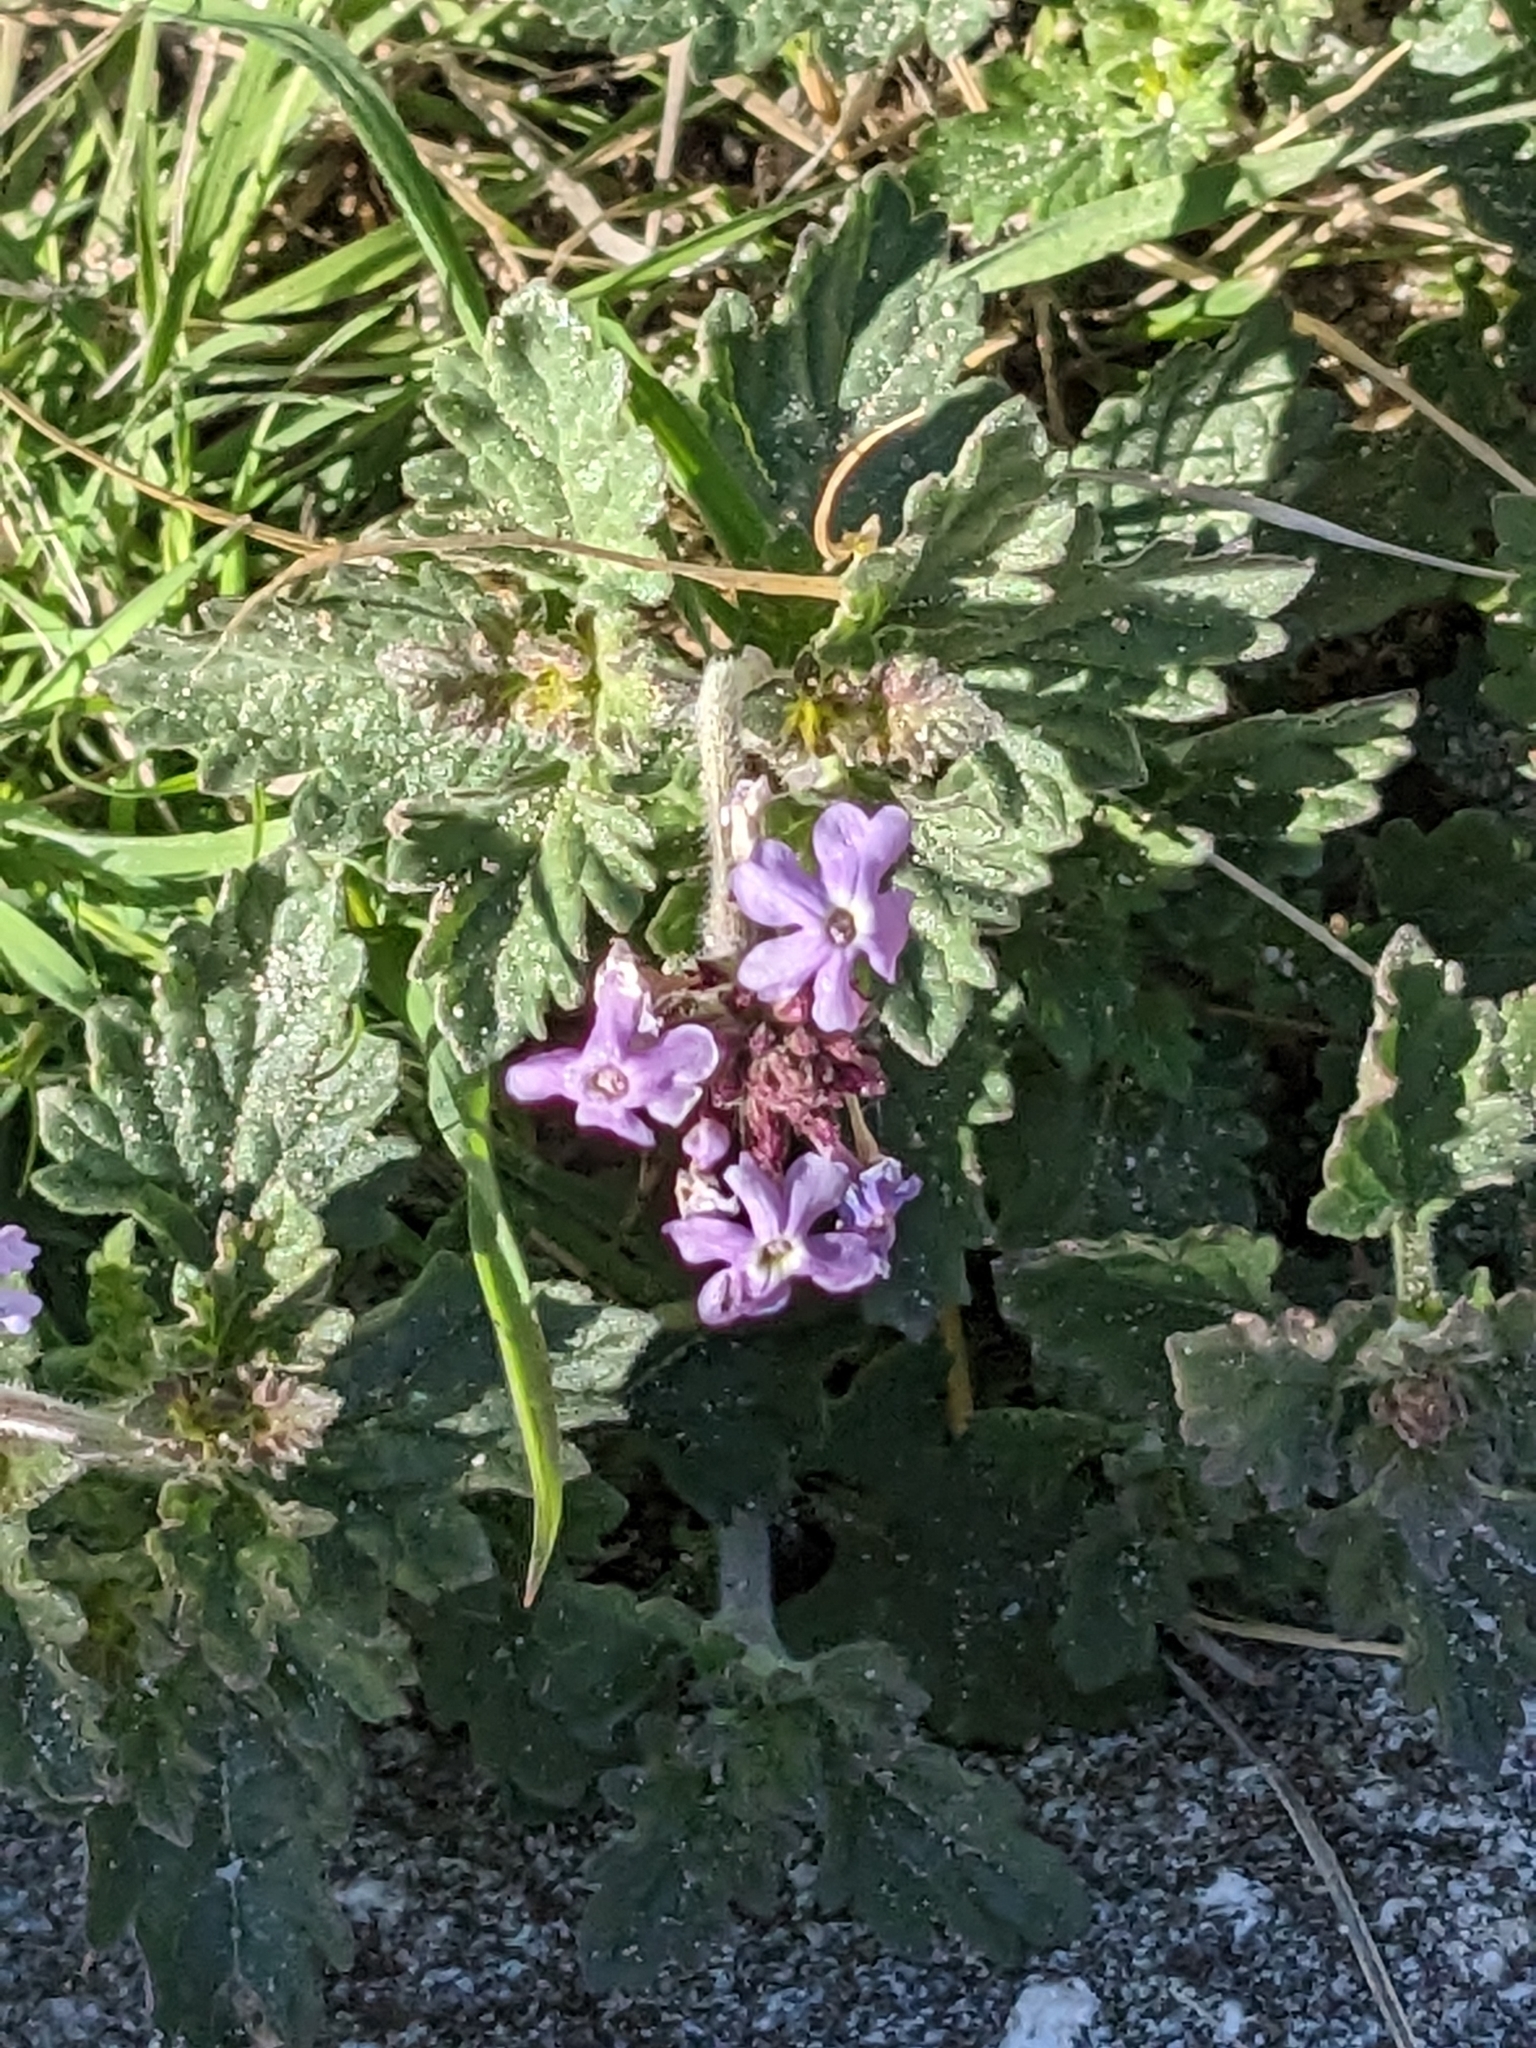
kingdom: Plantae
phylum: Tracheophyta
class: Magnoliopsida
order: Lamiales
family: Verbenaceae
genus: Verbena
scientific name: Verbena gooddingii
